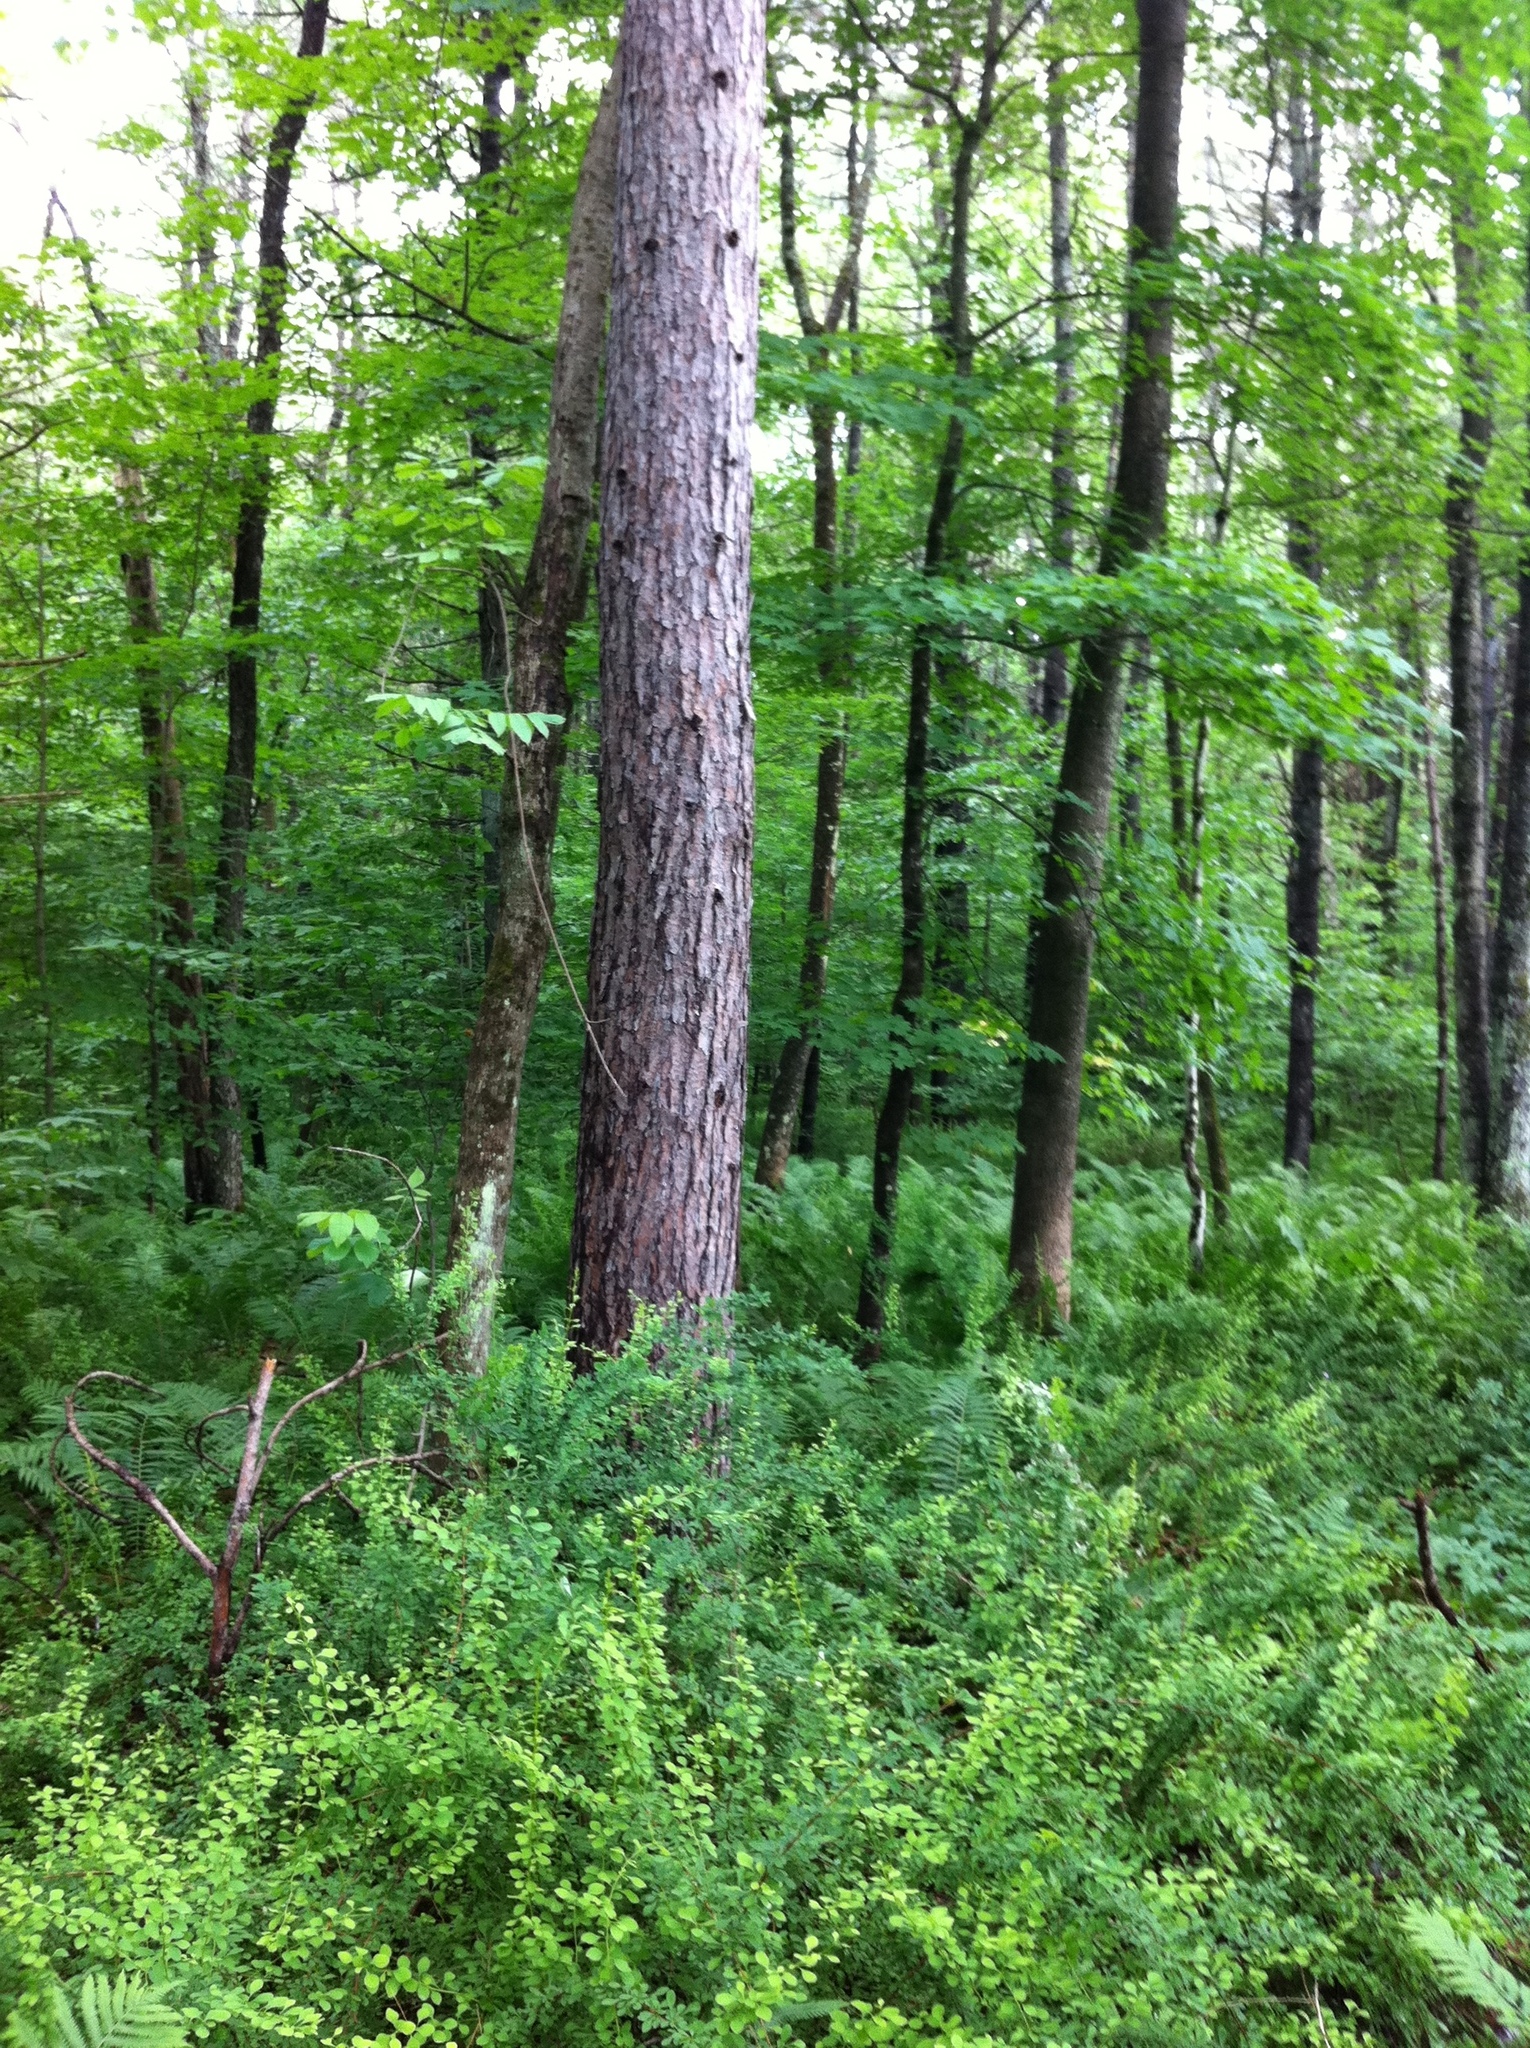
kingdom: Plantae
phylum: Tracheophyta
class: Magnoliopsida
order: Ranunculales
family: Berberidaceae
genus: Berberis
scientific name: Berberis thunbergii
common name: Japanese barberry
